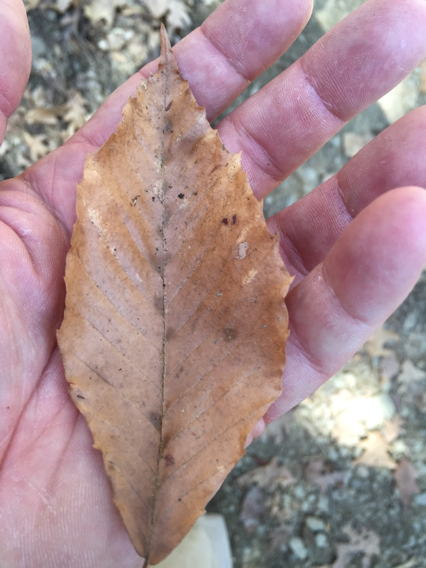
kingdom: Plantae
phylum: Tracheophyta
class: Magnoliopsida
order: Fagales
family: Fagaceae
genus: Fagus
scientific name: Fagus grandifolia
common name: American beech
